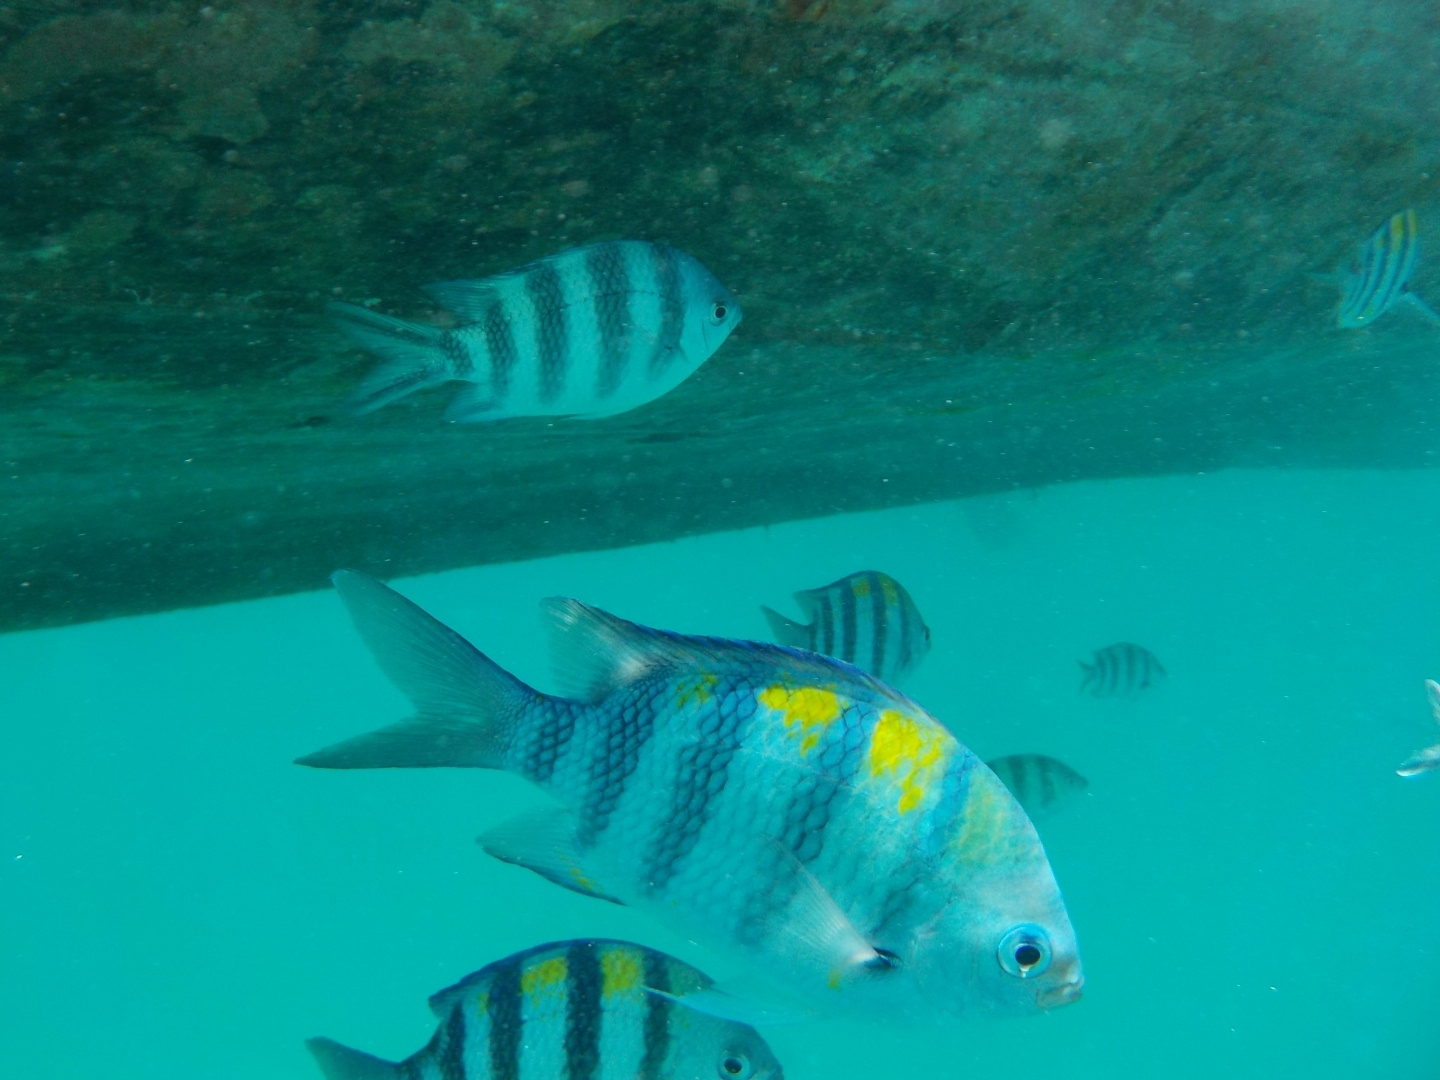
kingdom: Animalia
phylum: Chordata
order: Perciformes
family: Pomacentridae
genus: Abudefduf
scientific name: Abudefduf vaigiensis
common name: Indo-pacific sergeant
